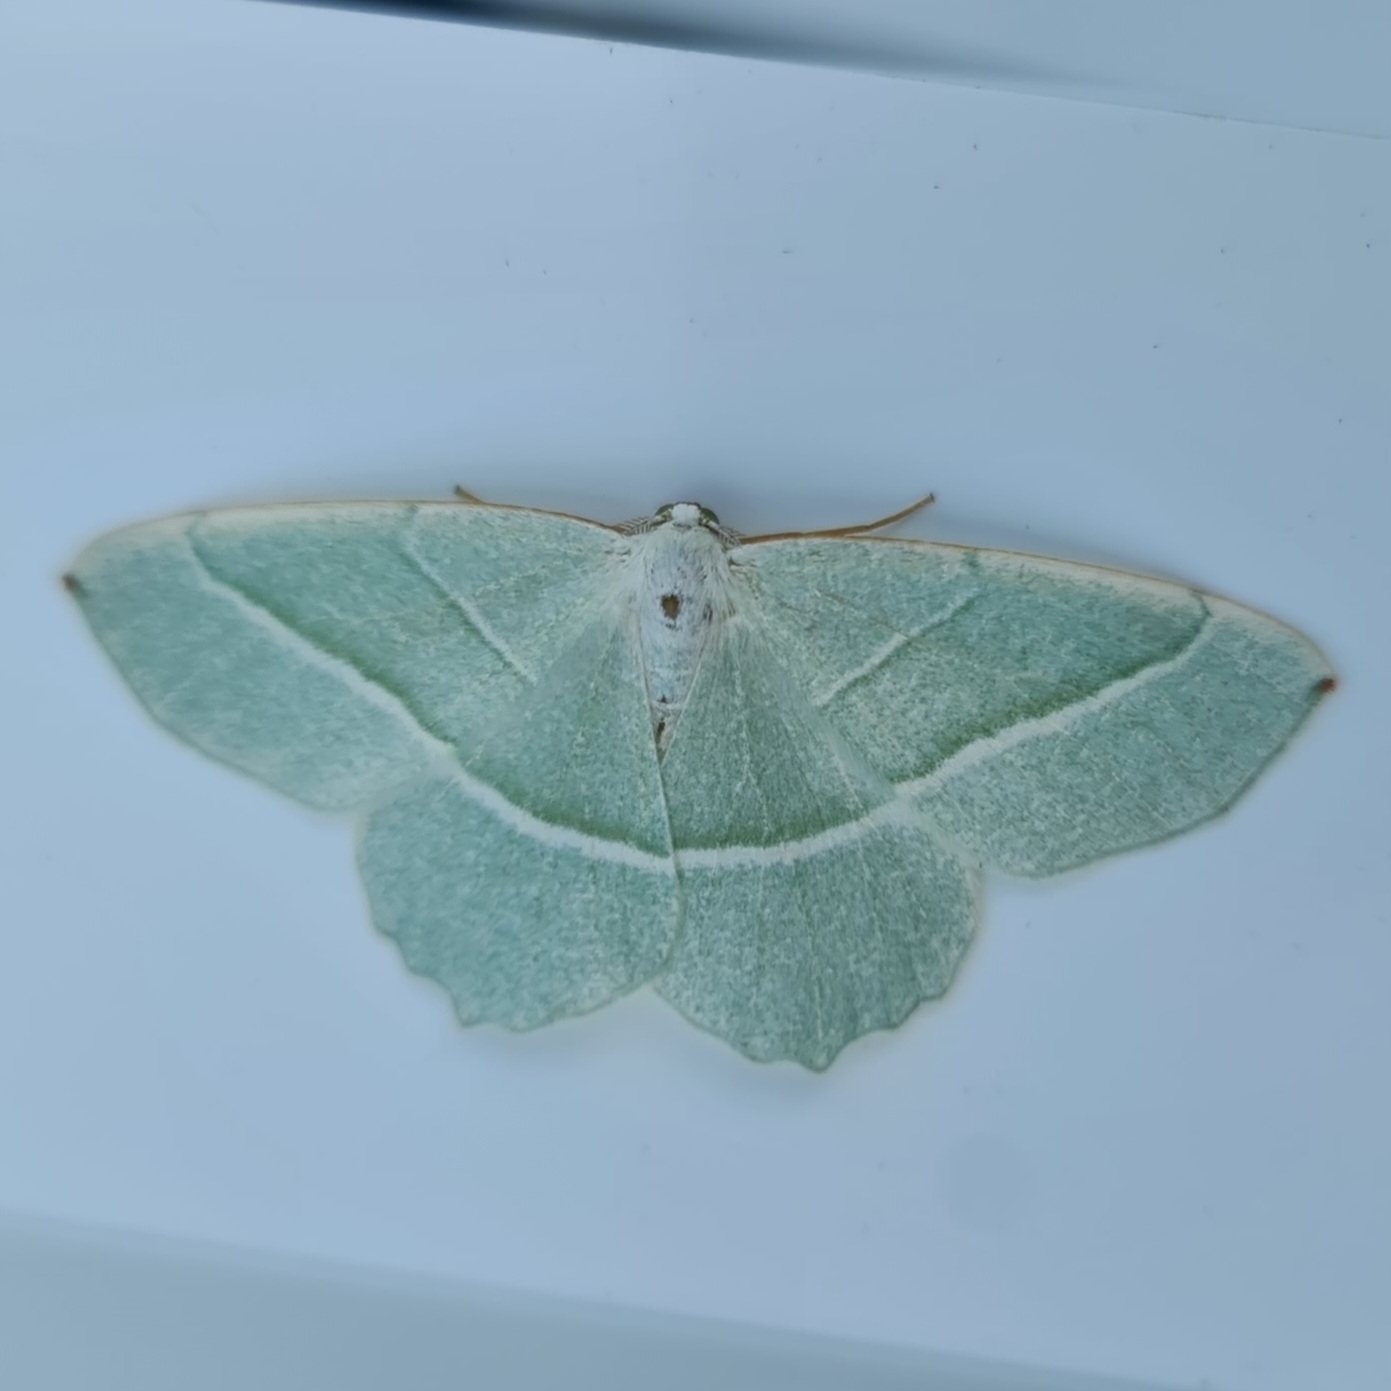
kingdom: Animalia
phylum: Arthropoda
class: Insecta
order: Lepidoptera
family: Geometridae
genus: Campaea
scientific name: Campaea margaritaria
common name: Light emerald
